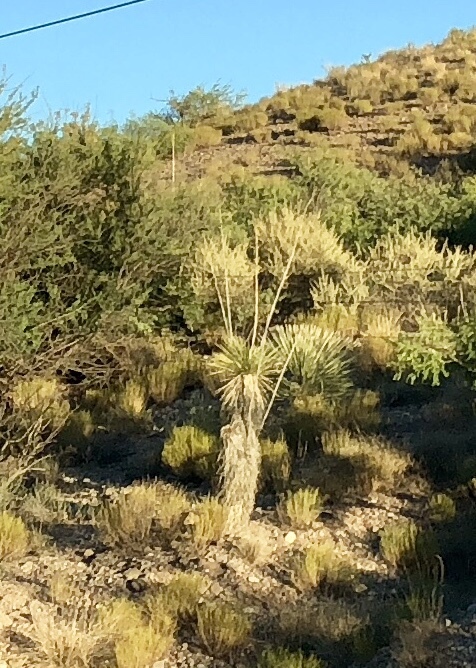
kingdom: Plantae
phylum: Tracheophyta
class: Liliopsida
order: Asparagales
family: Asparagaceae
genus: Yucca
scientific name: Yucca elata
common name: Palmella
